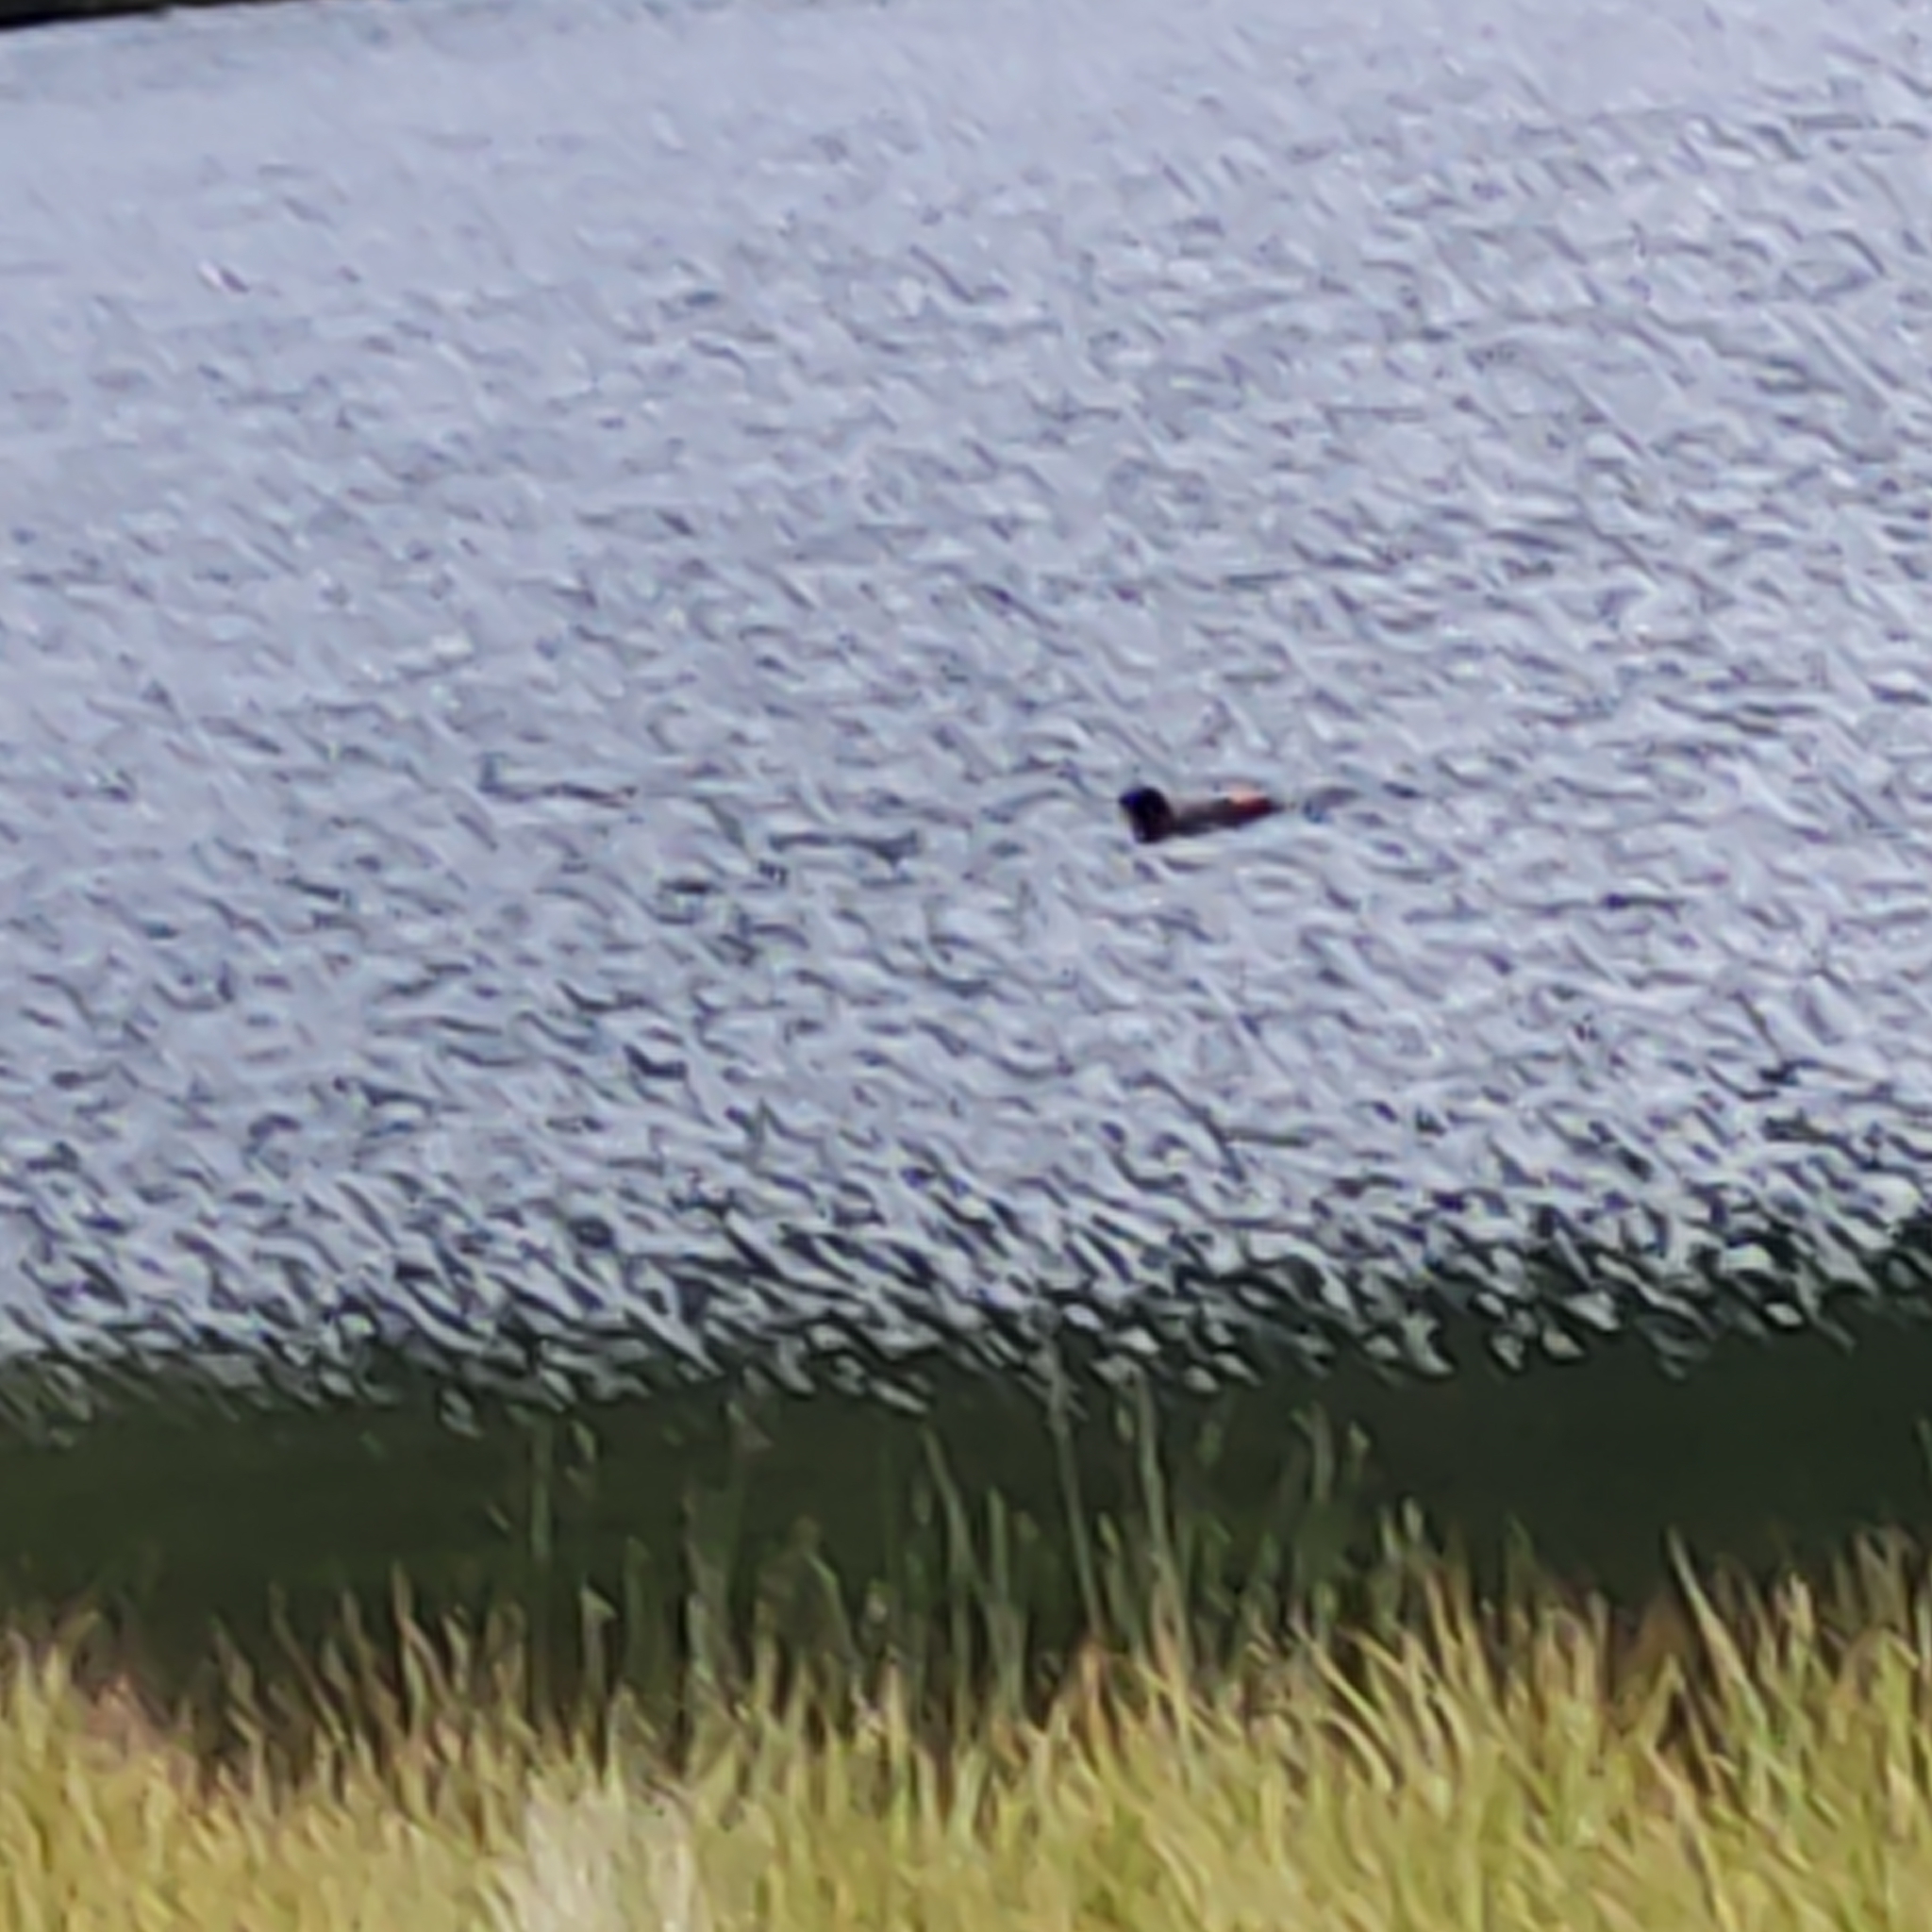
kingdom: Animalia
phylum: Chordata
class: Aves
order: Anseriformes
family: Anatidae
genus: Tadorna
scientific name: Tadorna variegata
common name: Paradise shelduck
